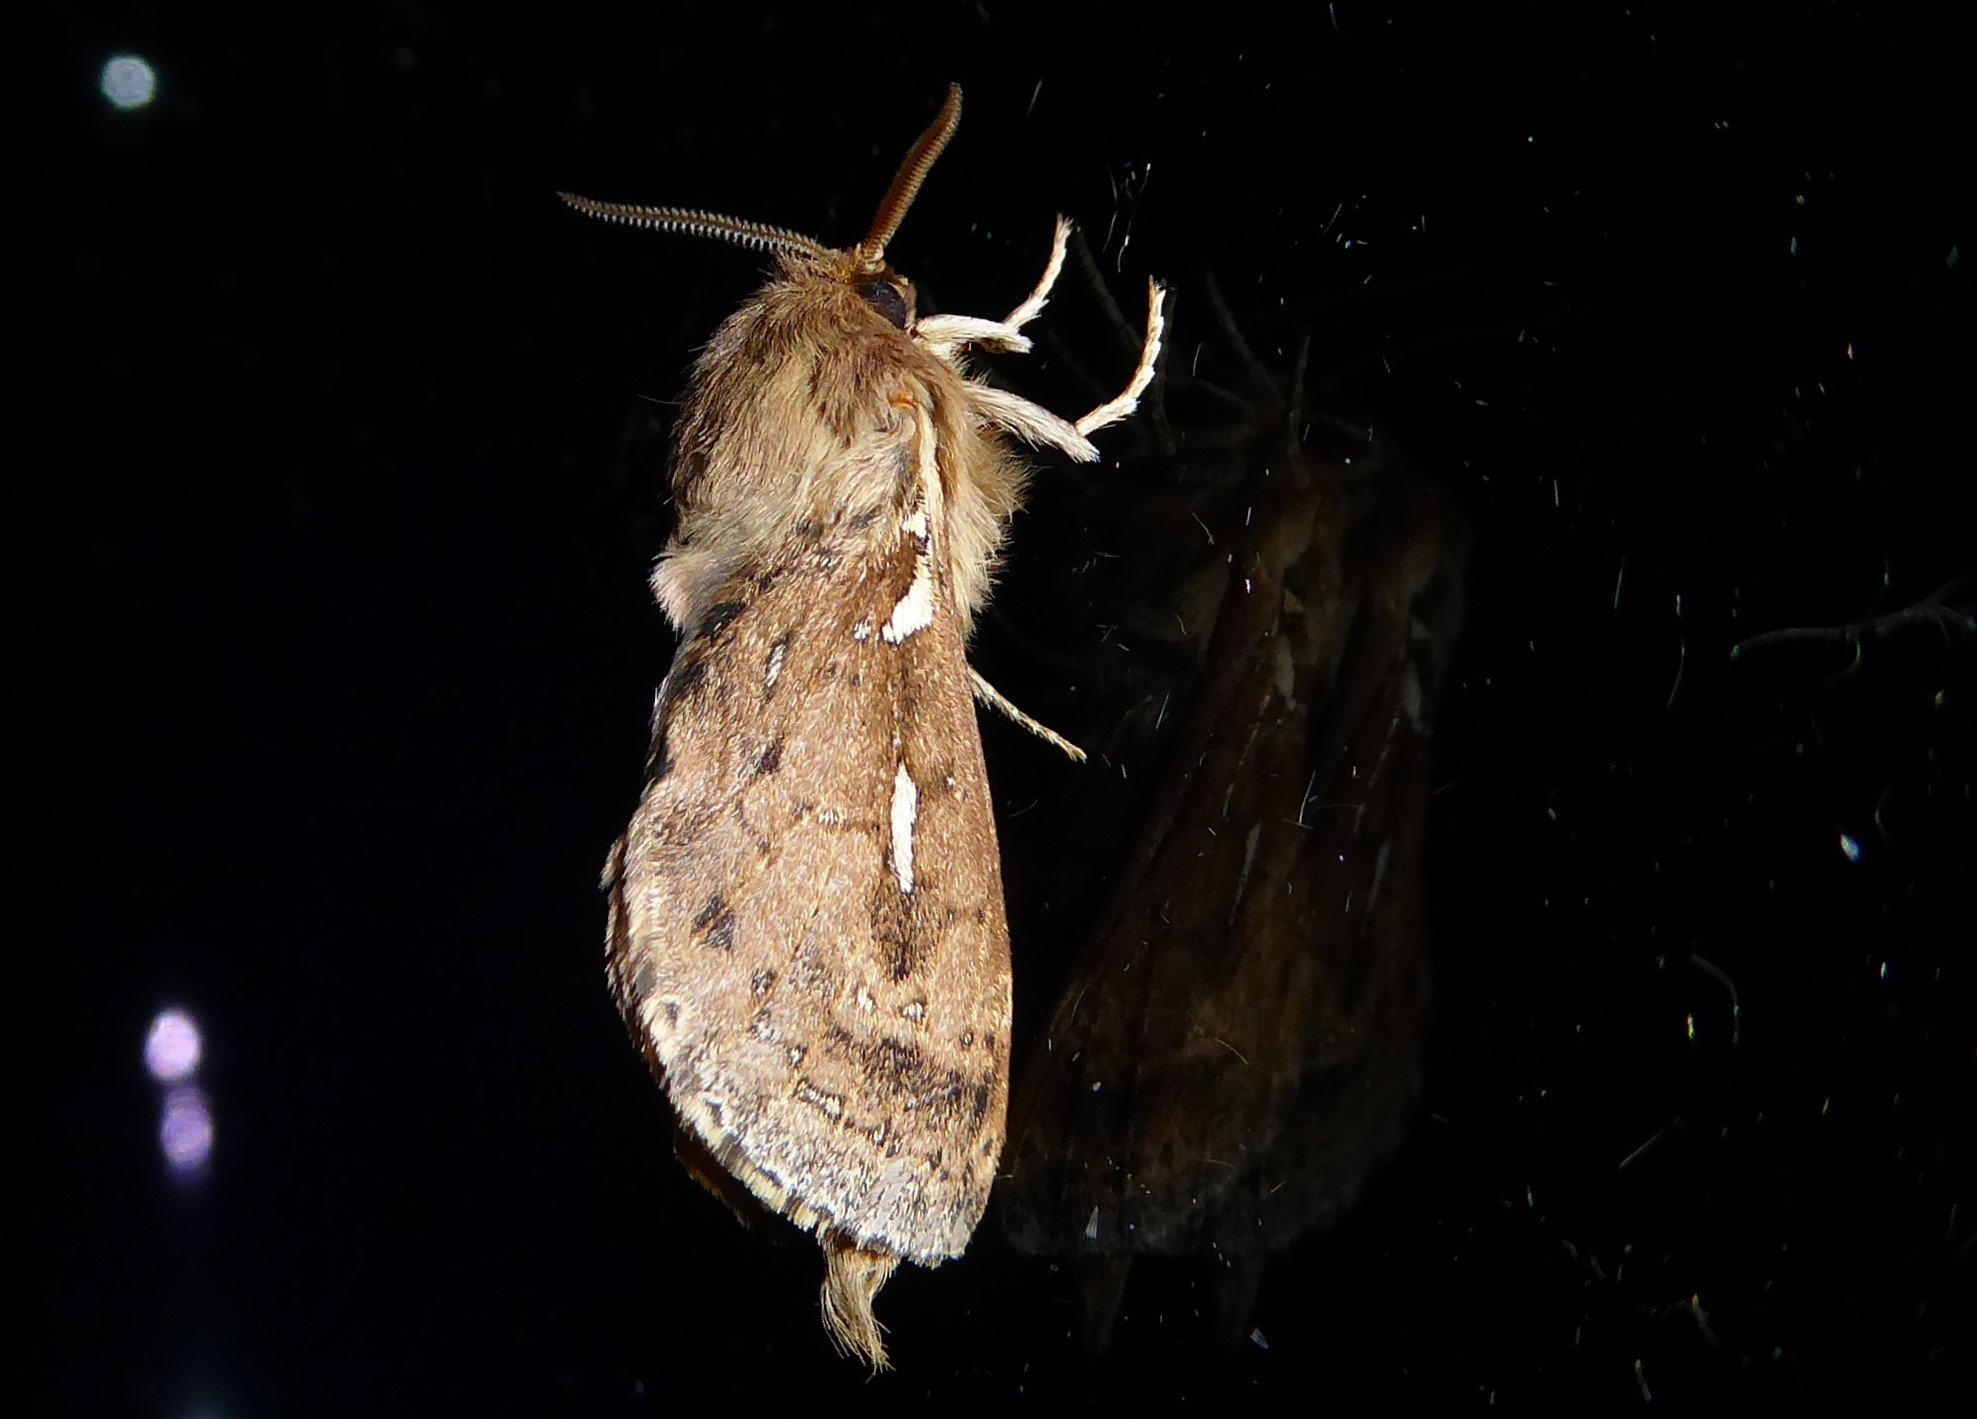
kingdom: Animalia
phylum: Arthropoda
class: Insecta
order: Lepidoptera
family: Hepialidae
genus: Wiseana
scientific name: Wiseana copularis
